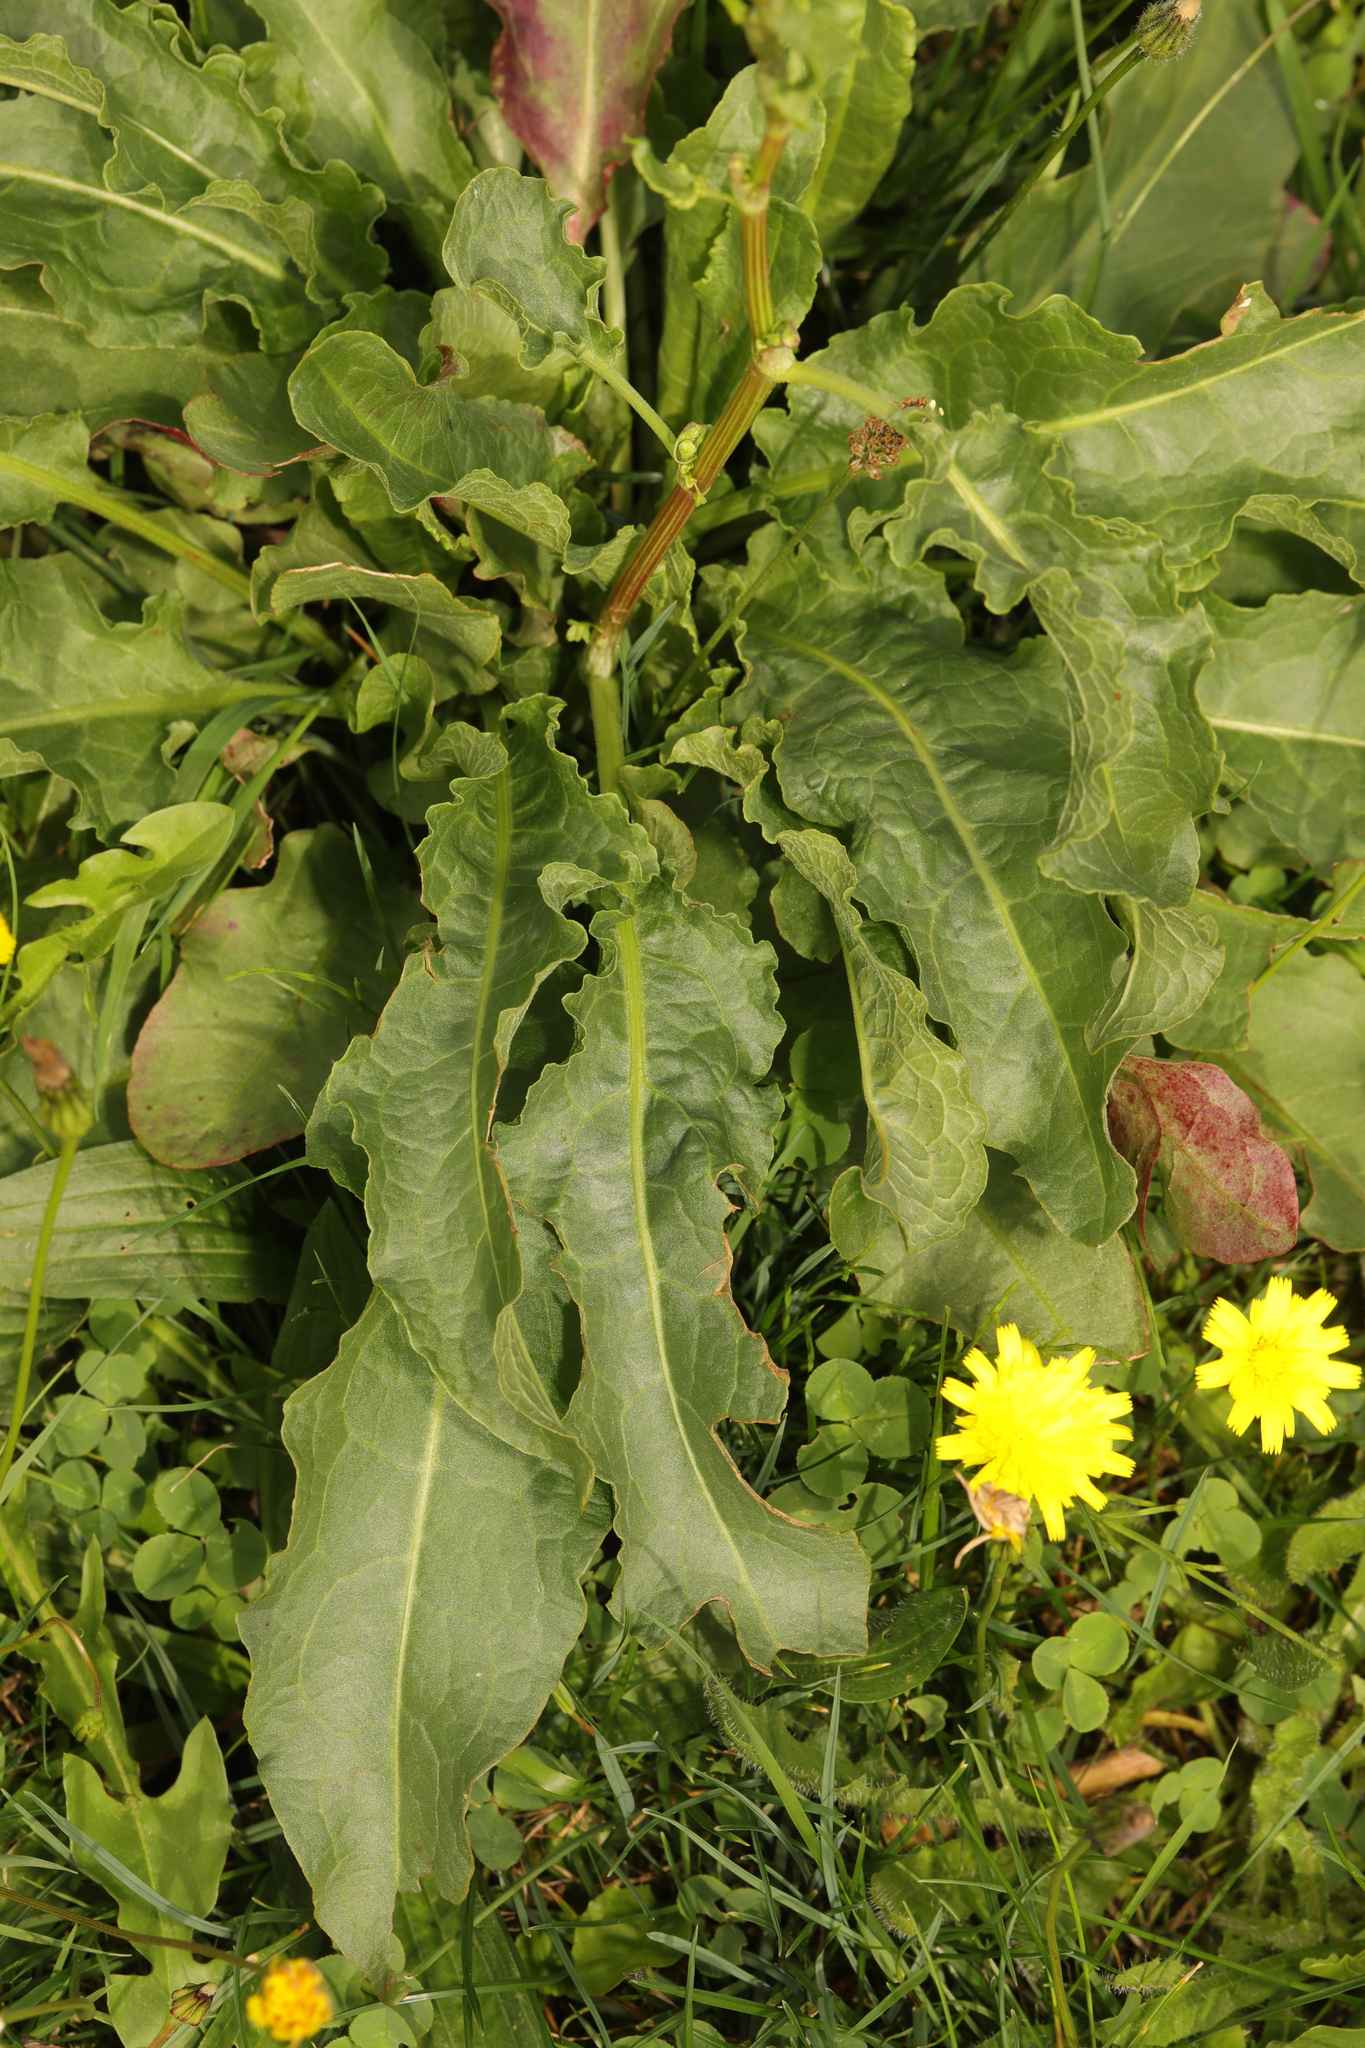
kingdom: Plantae
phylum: Tracheophyta
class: Magnoliopsida
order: Caryophyllales
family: Polygonaceae
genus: Rumex
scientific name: Rumex crispus
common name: Curled dock
